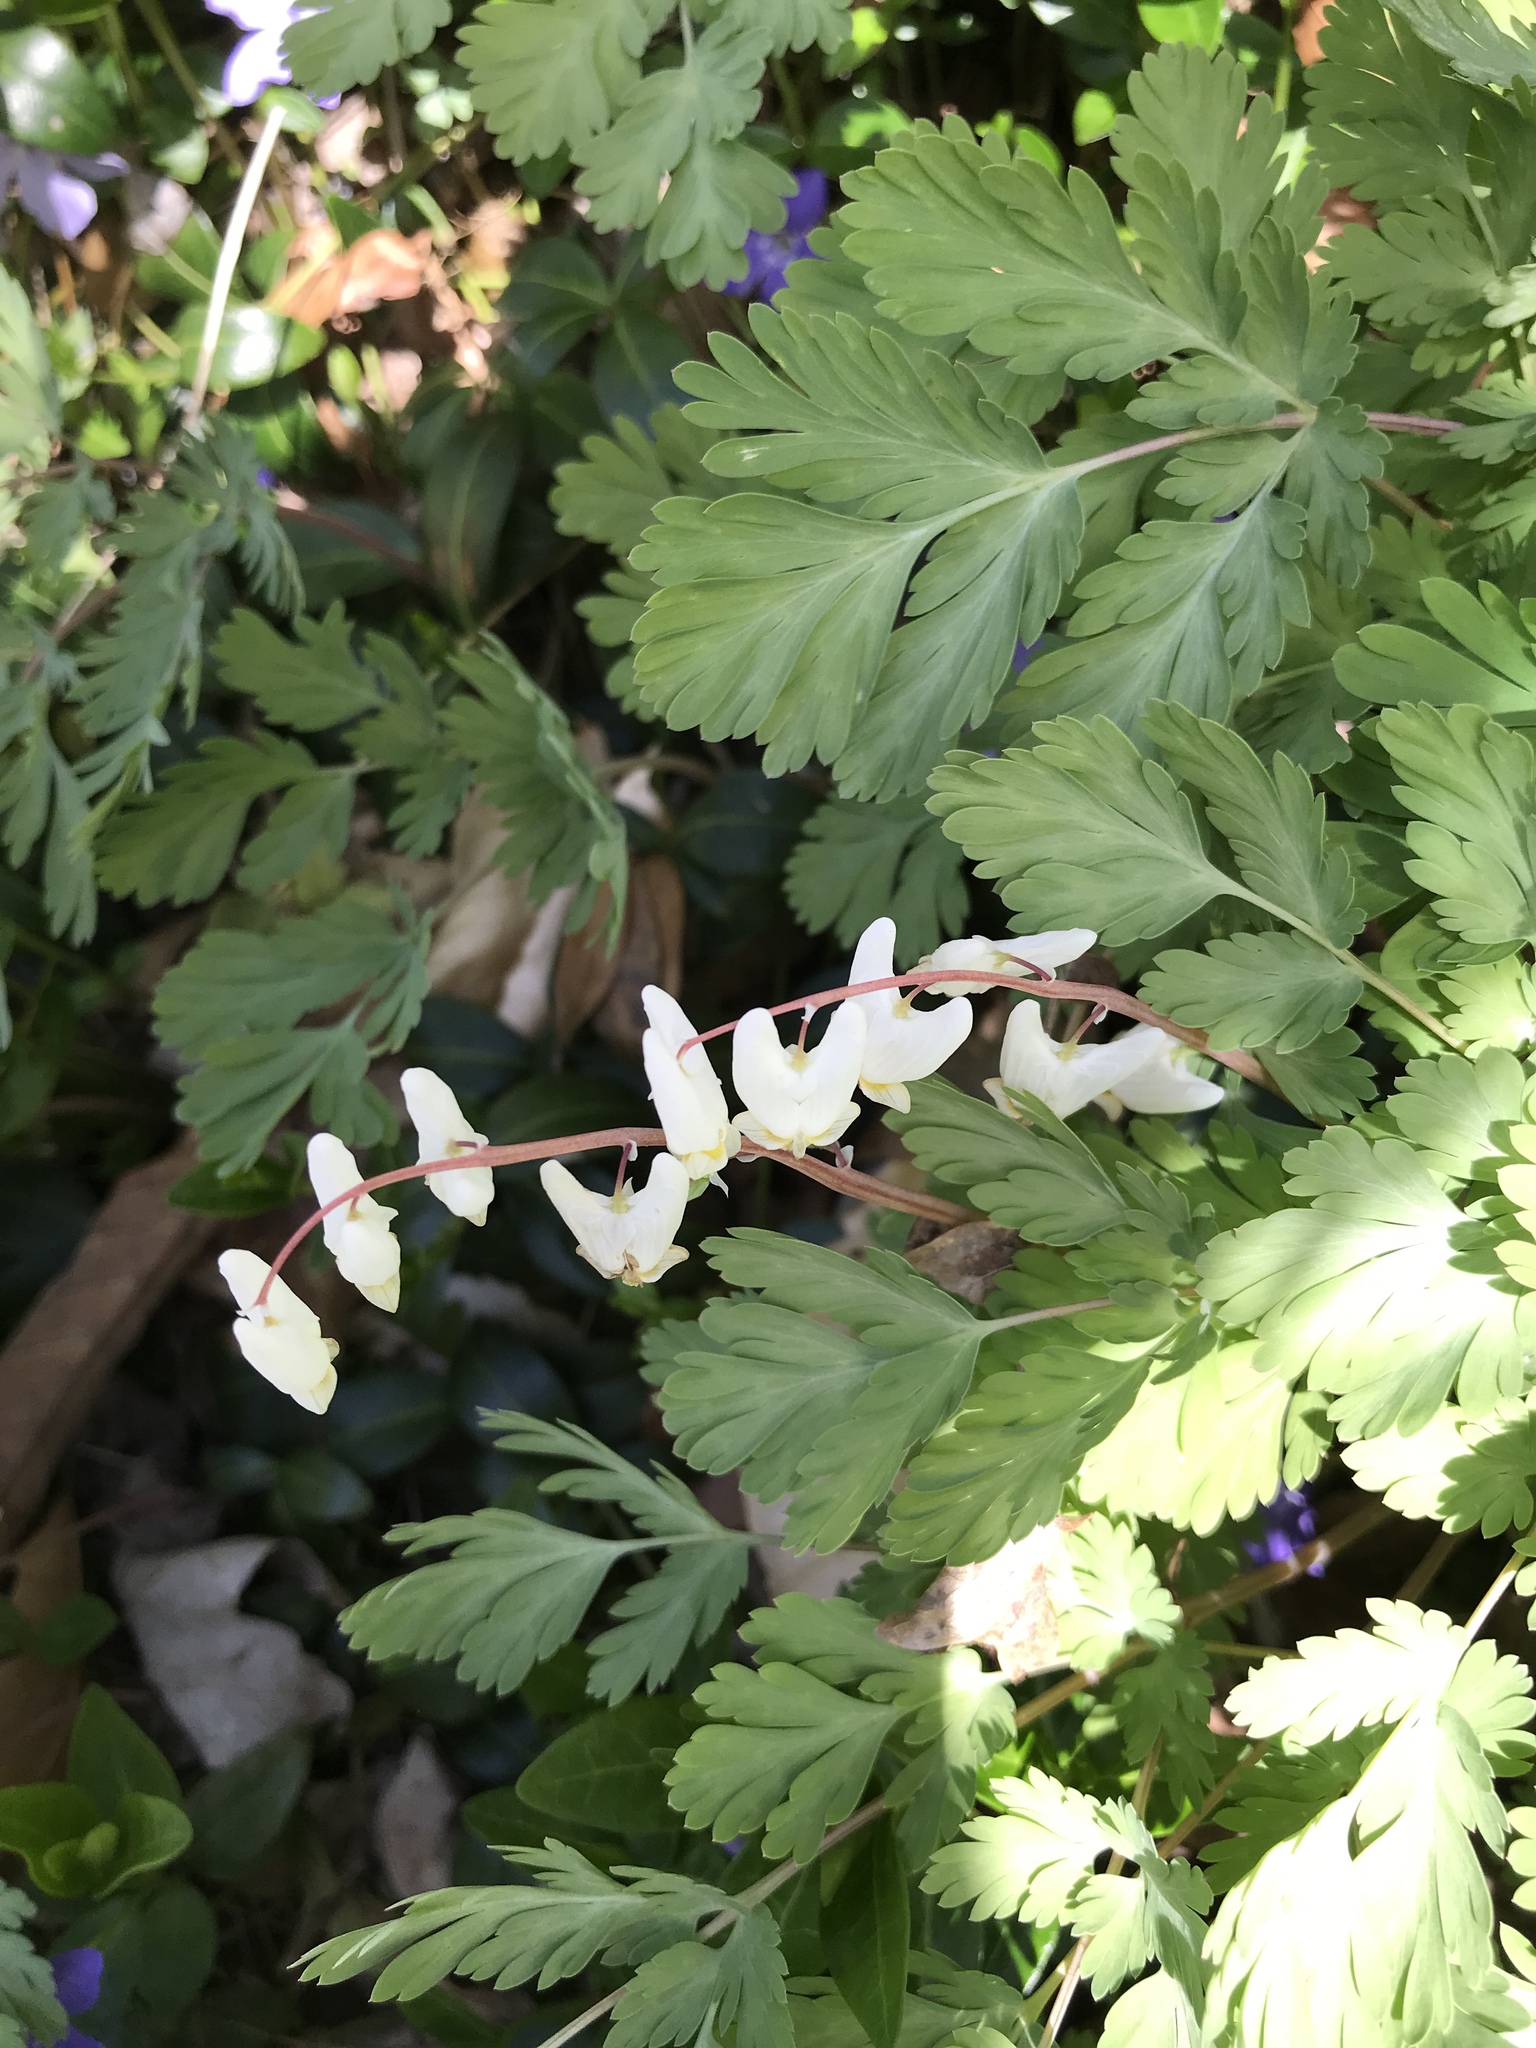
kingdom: Plantae
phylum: Tracheophyta
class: Magnoliopsida
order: Ranunculales
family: Papaveraceae
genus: Dicentra
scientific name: Dicentra cucullaria
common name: Dutchman's breeches
